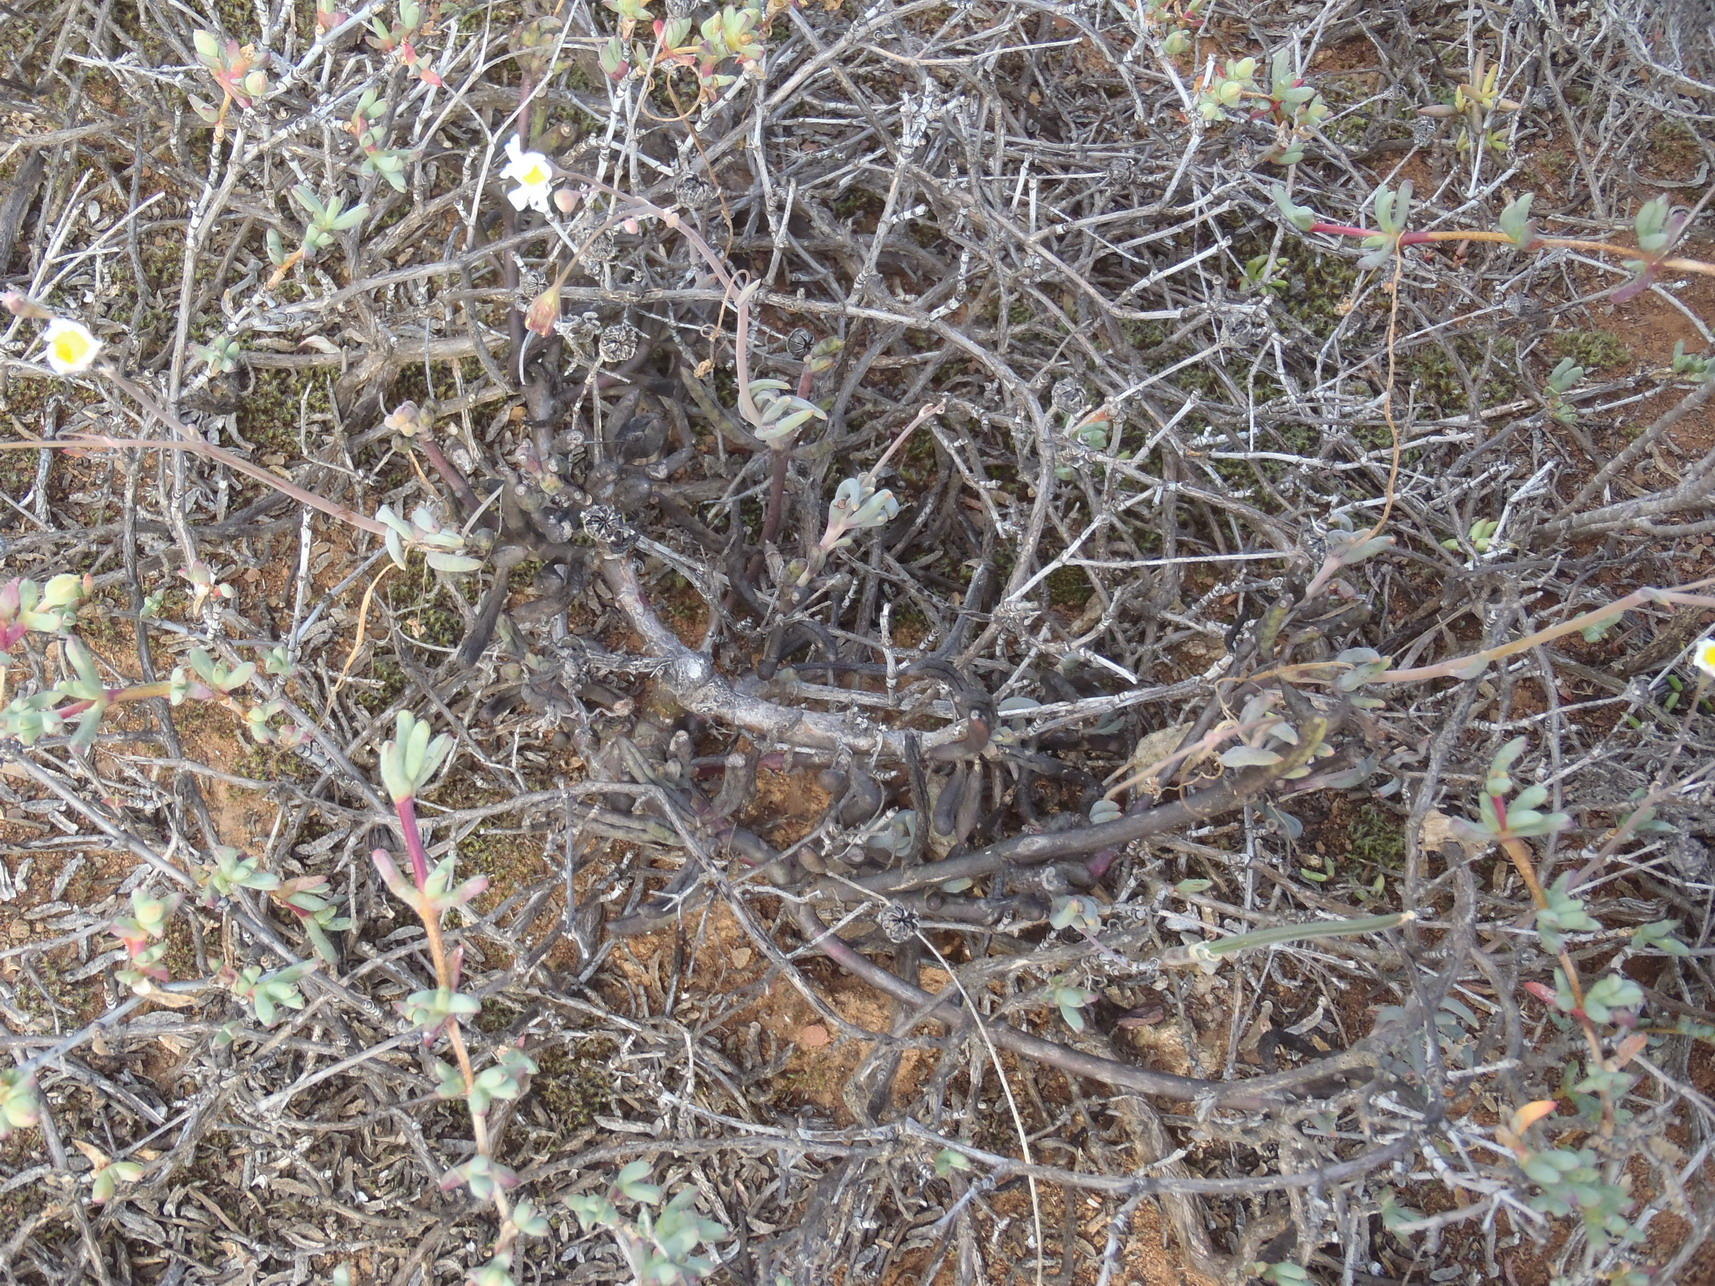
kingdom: Plantae
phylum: Tracheophyta
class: Magnoliopsida
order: Asterales
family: Asteraceae
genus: Crassothonna
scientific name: Crassothonna alba
